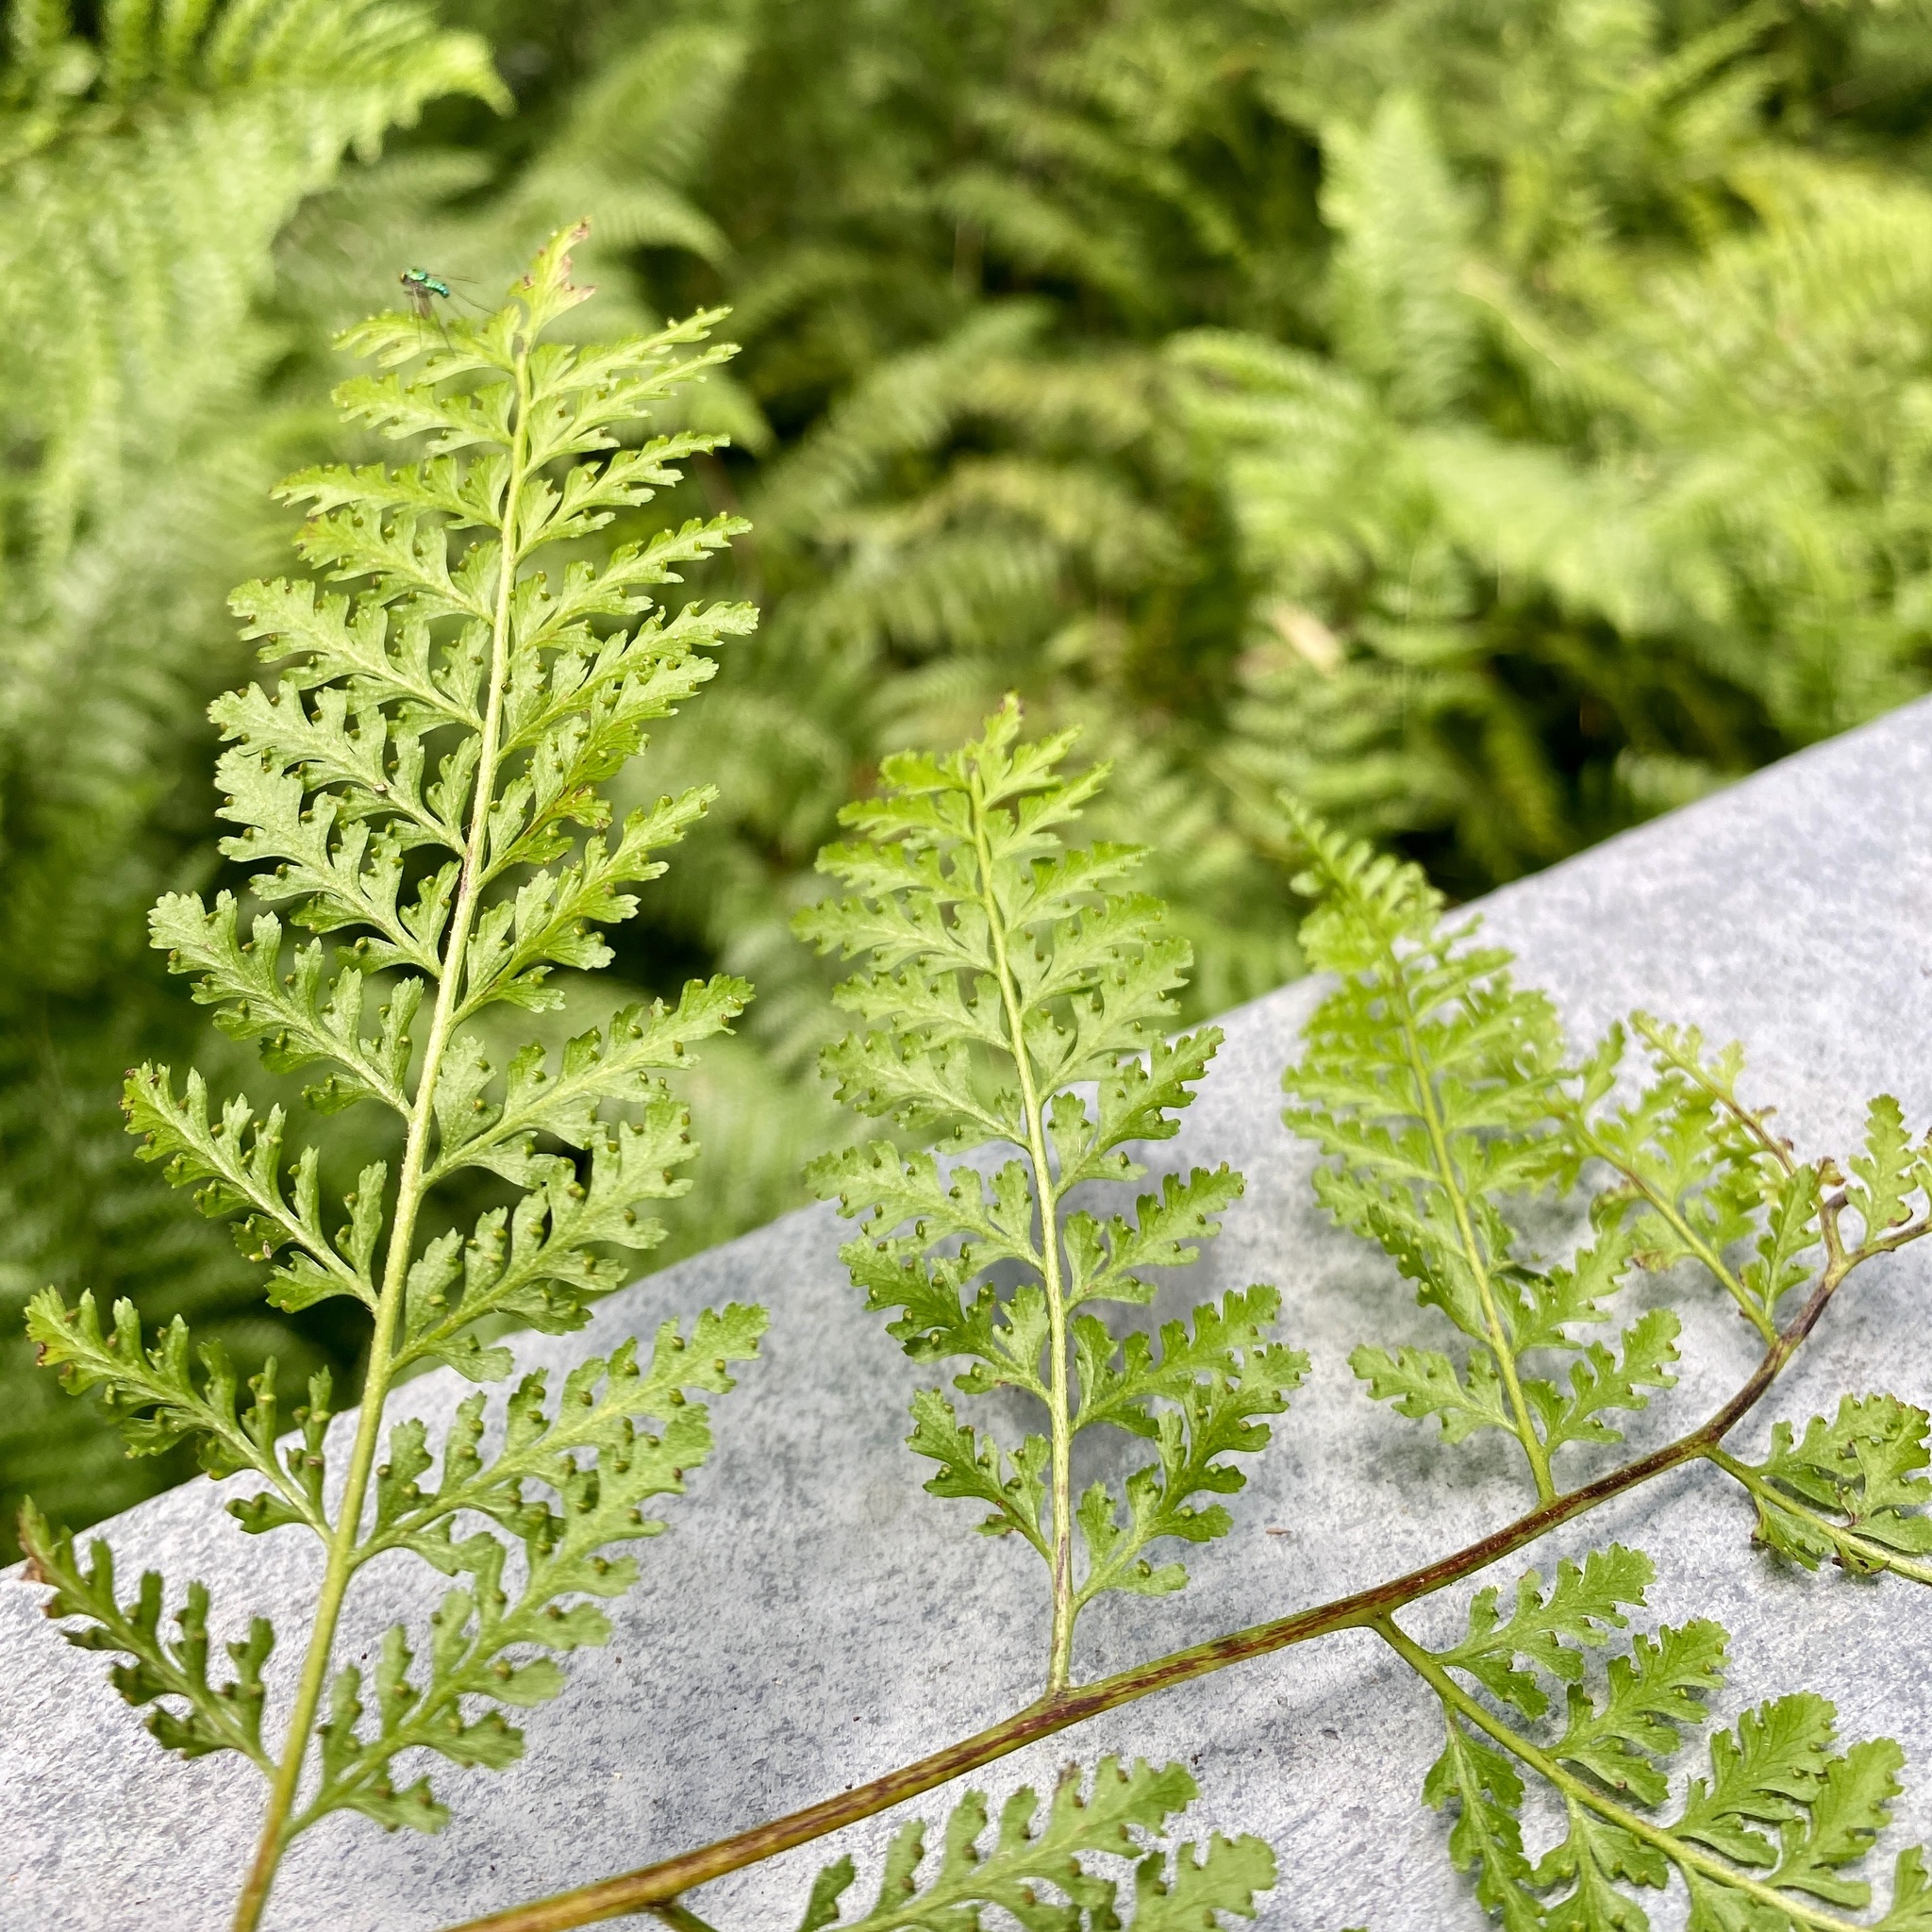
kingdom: Plantae
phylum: Tracheophyta
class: Polypodiopsida
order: Polypodiales
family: Dennstaedtiaceae
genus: Mucura
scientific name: Mucura bipinnata
